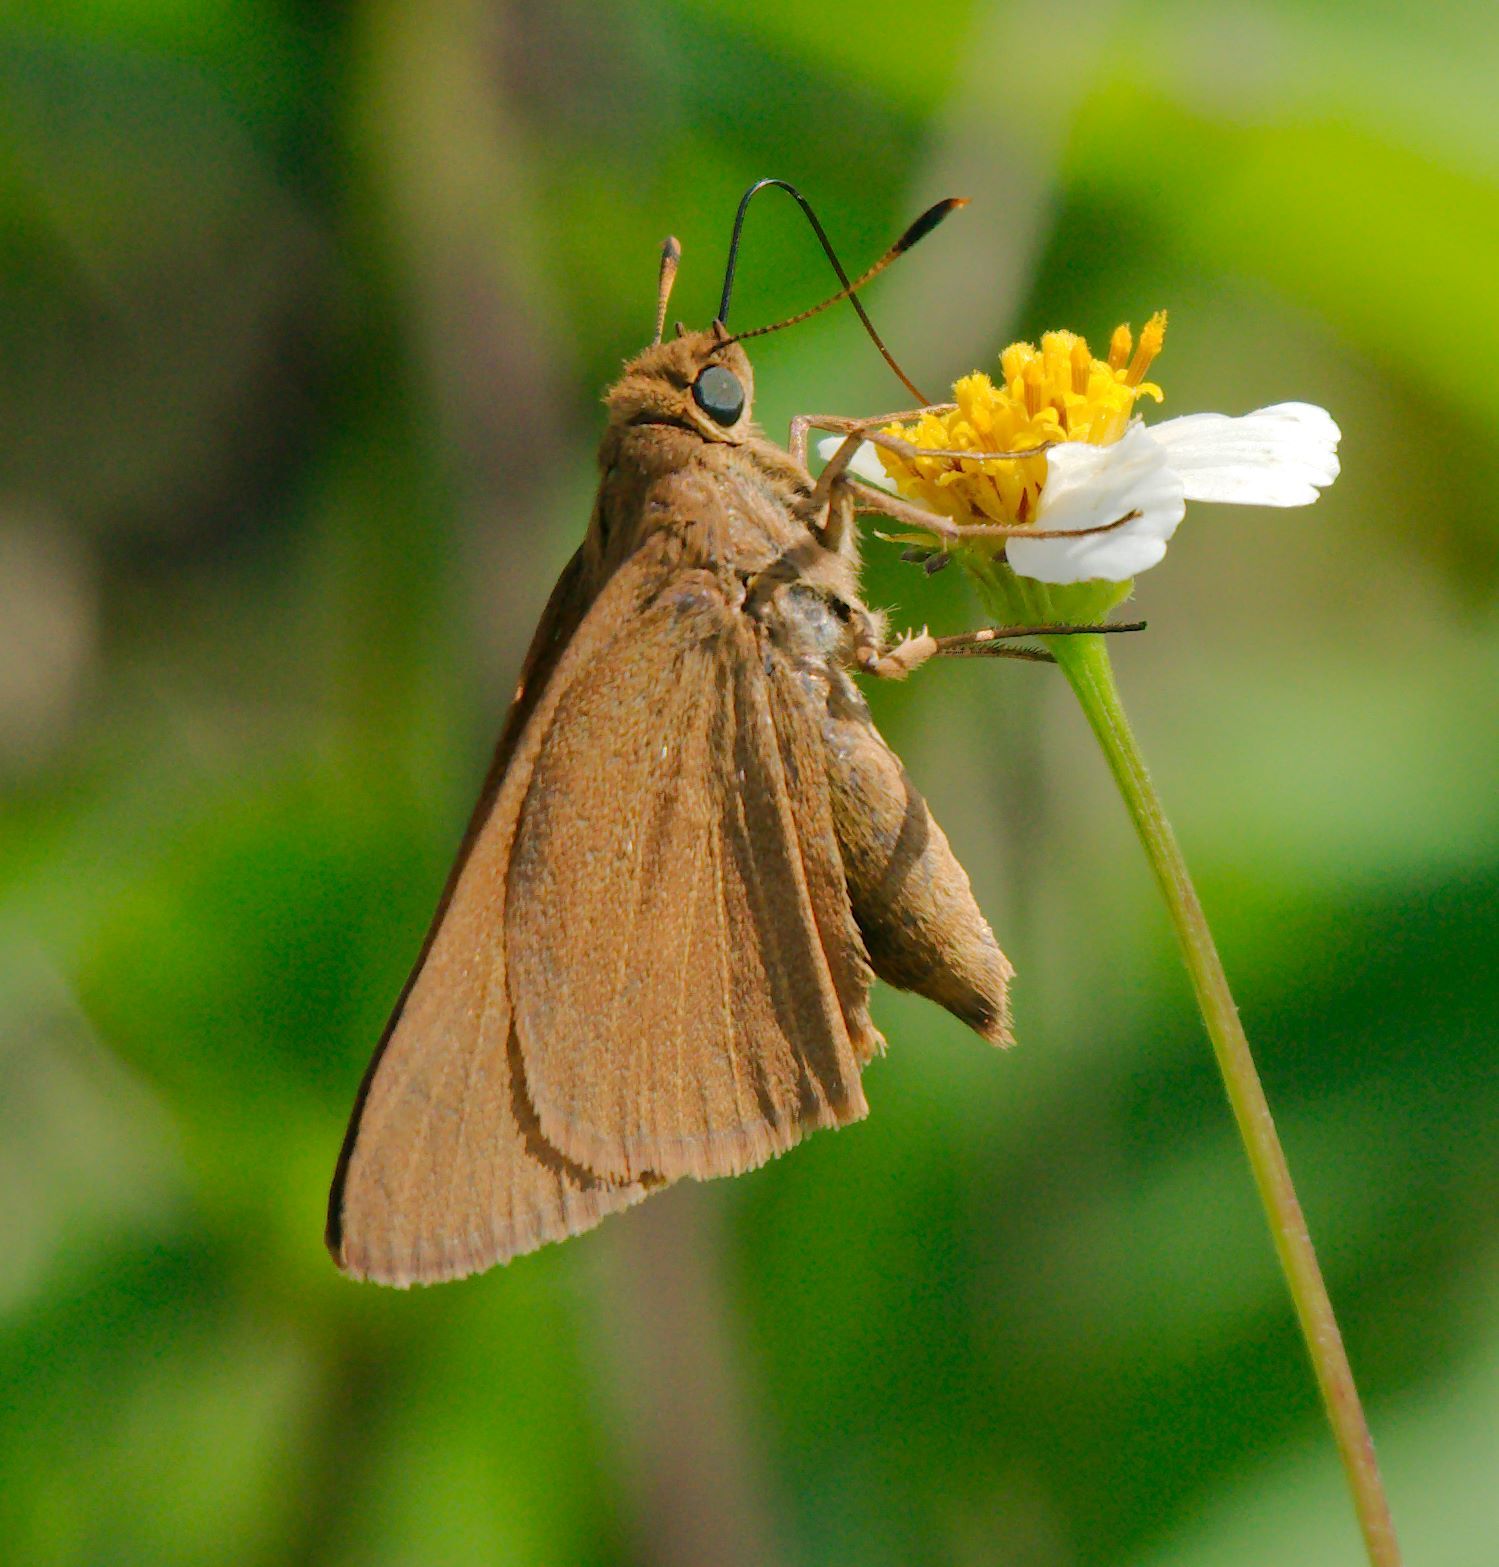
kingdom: Animalia
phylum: Arthropoda
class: Insecta
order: Lepidoptera
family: Hesperiidae
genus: Euphyes
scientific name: Euphyes pilatka
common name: Palatka skipper
